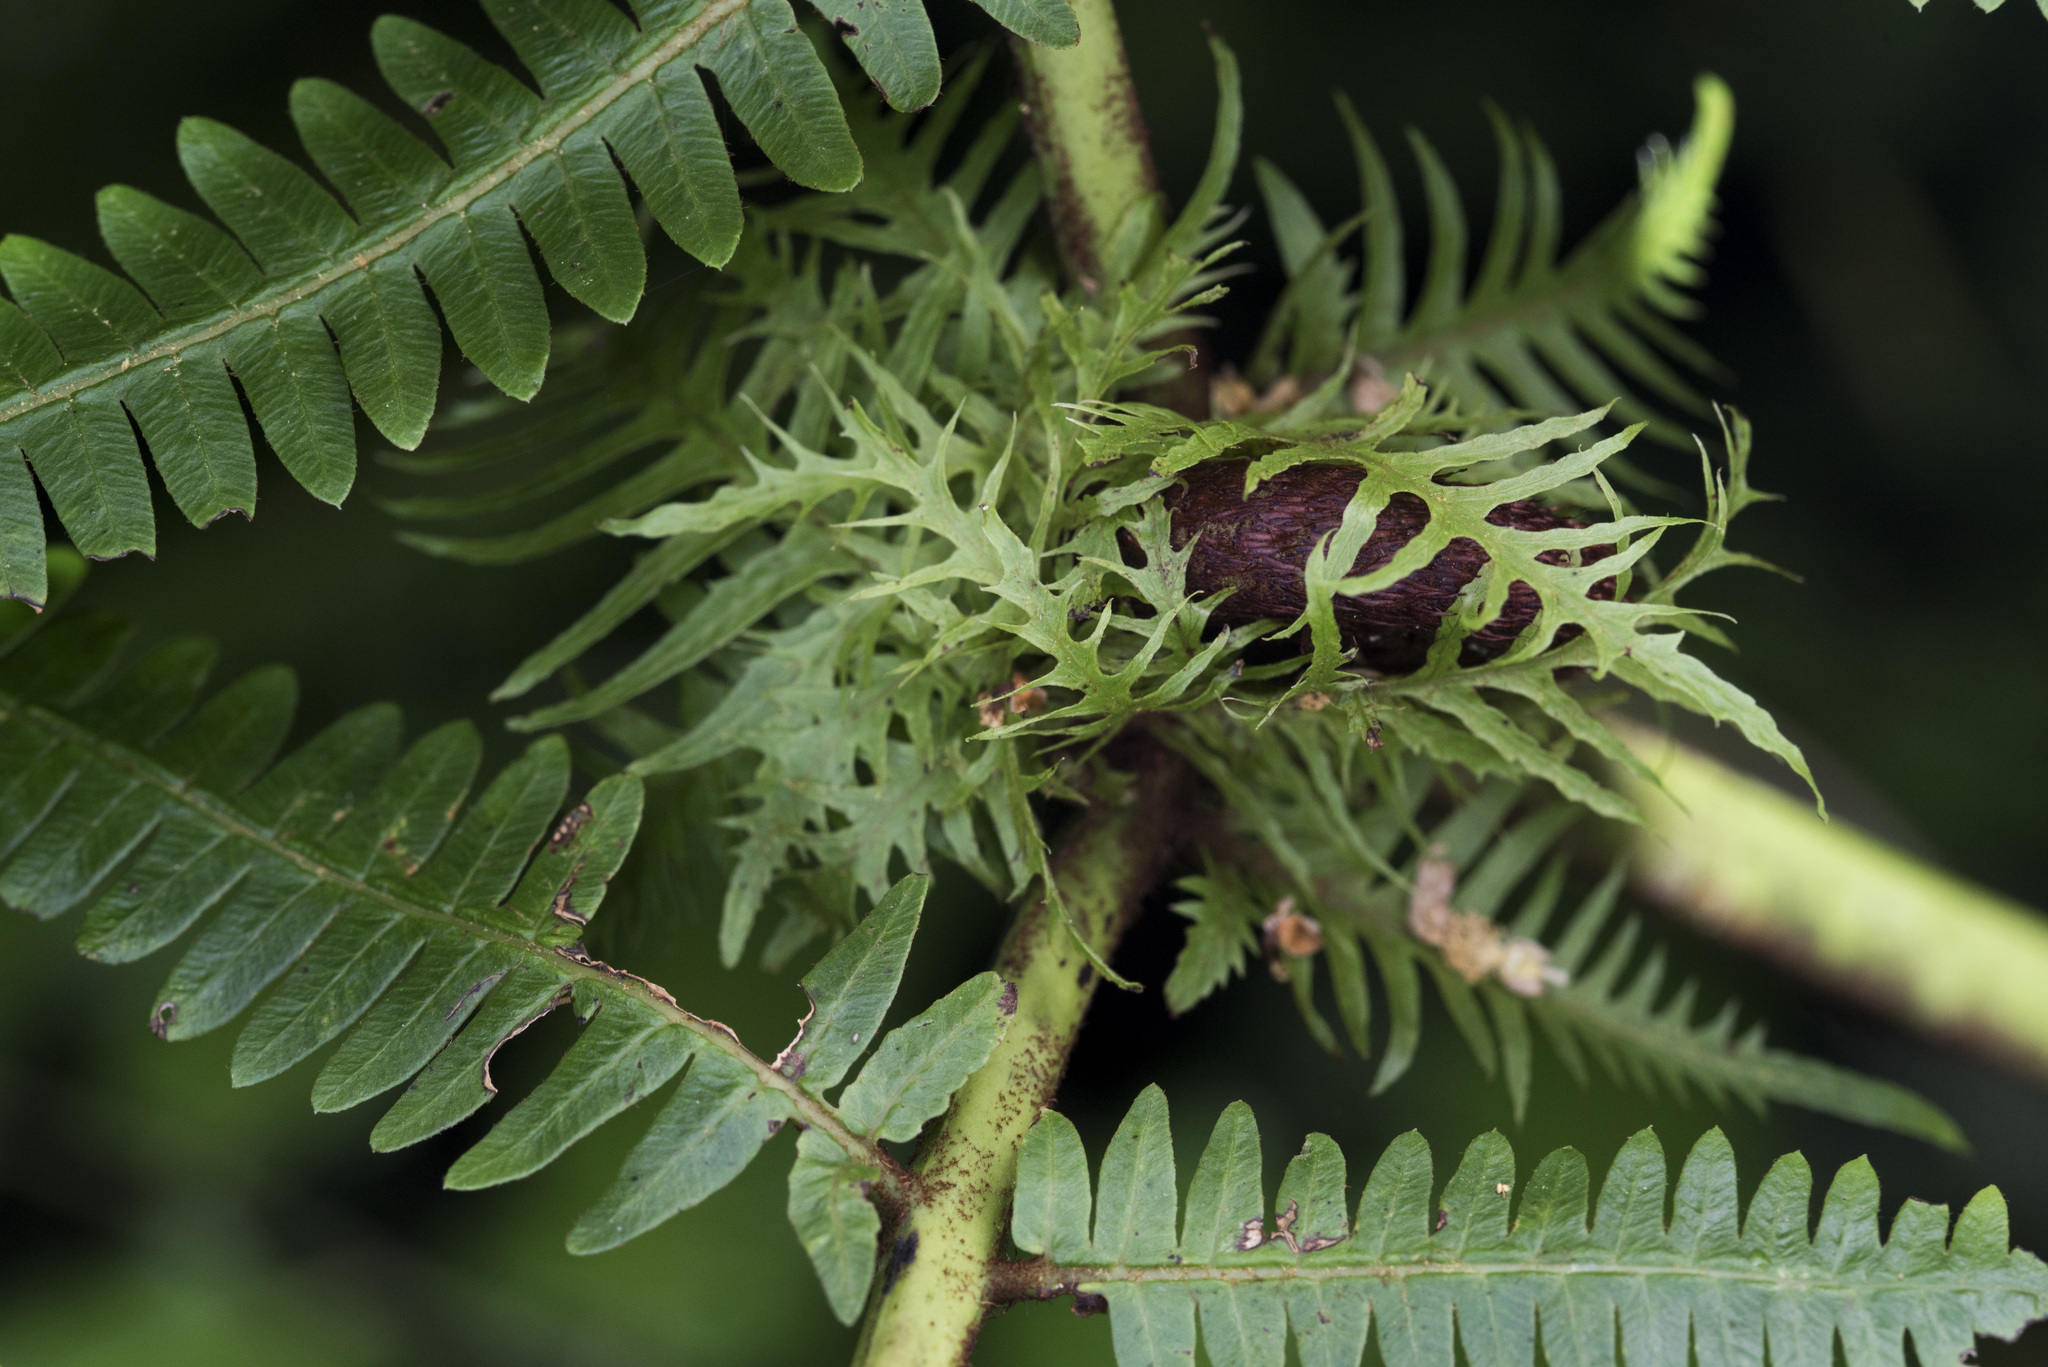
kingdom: Plantae
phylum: Tracheophyta
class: Polypodiopsida
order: Gleicheniales
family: Gleicheniaceae
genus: Diplopterygium
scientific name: Diplopterygium glaucum
